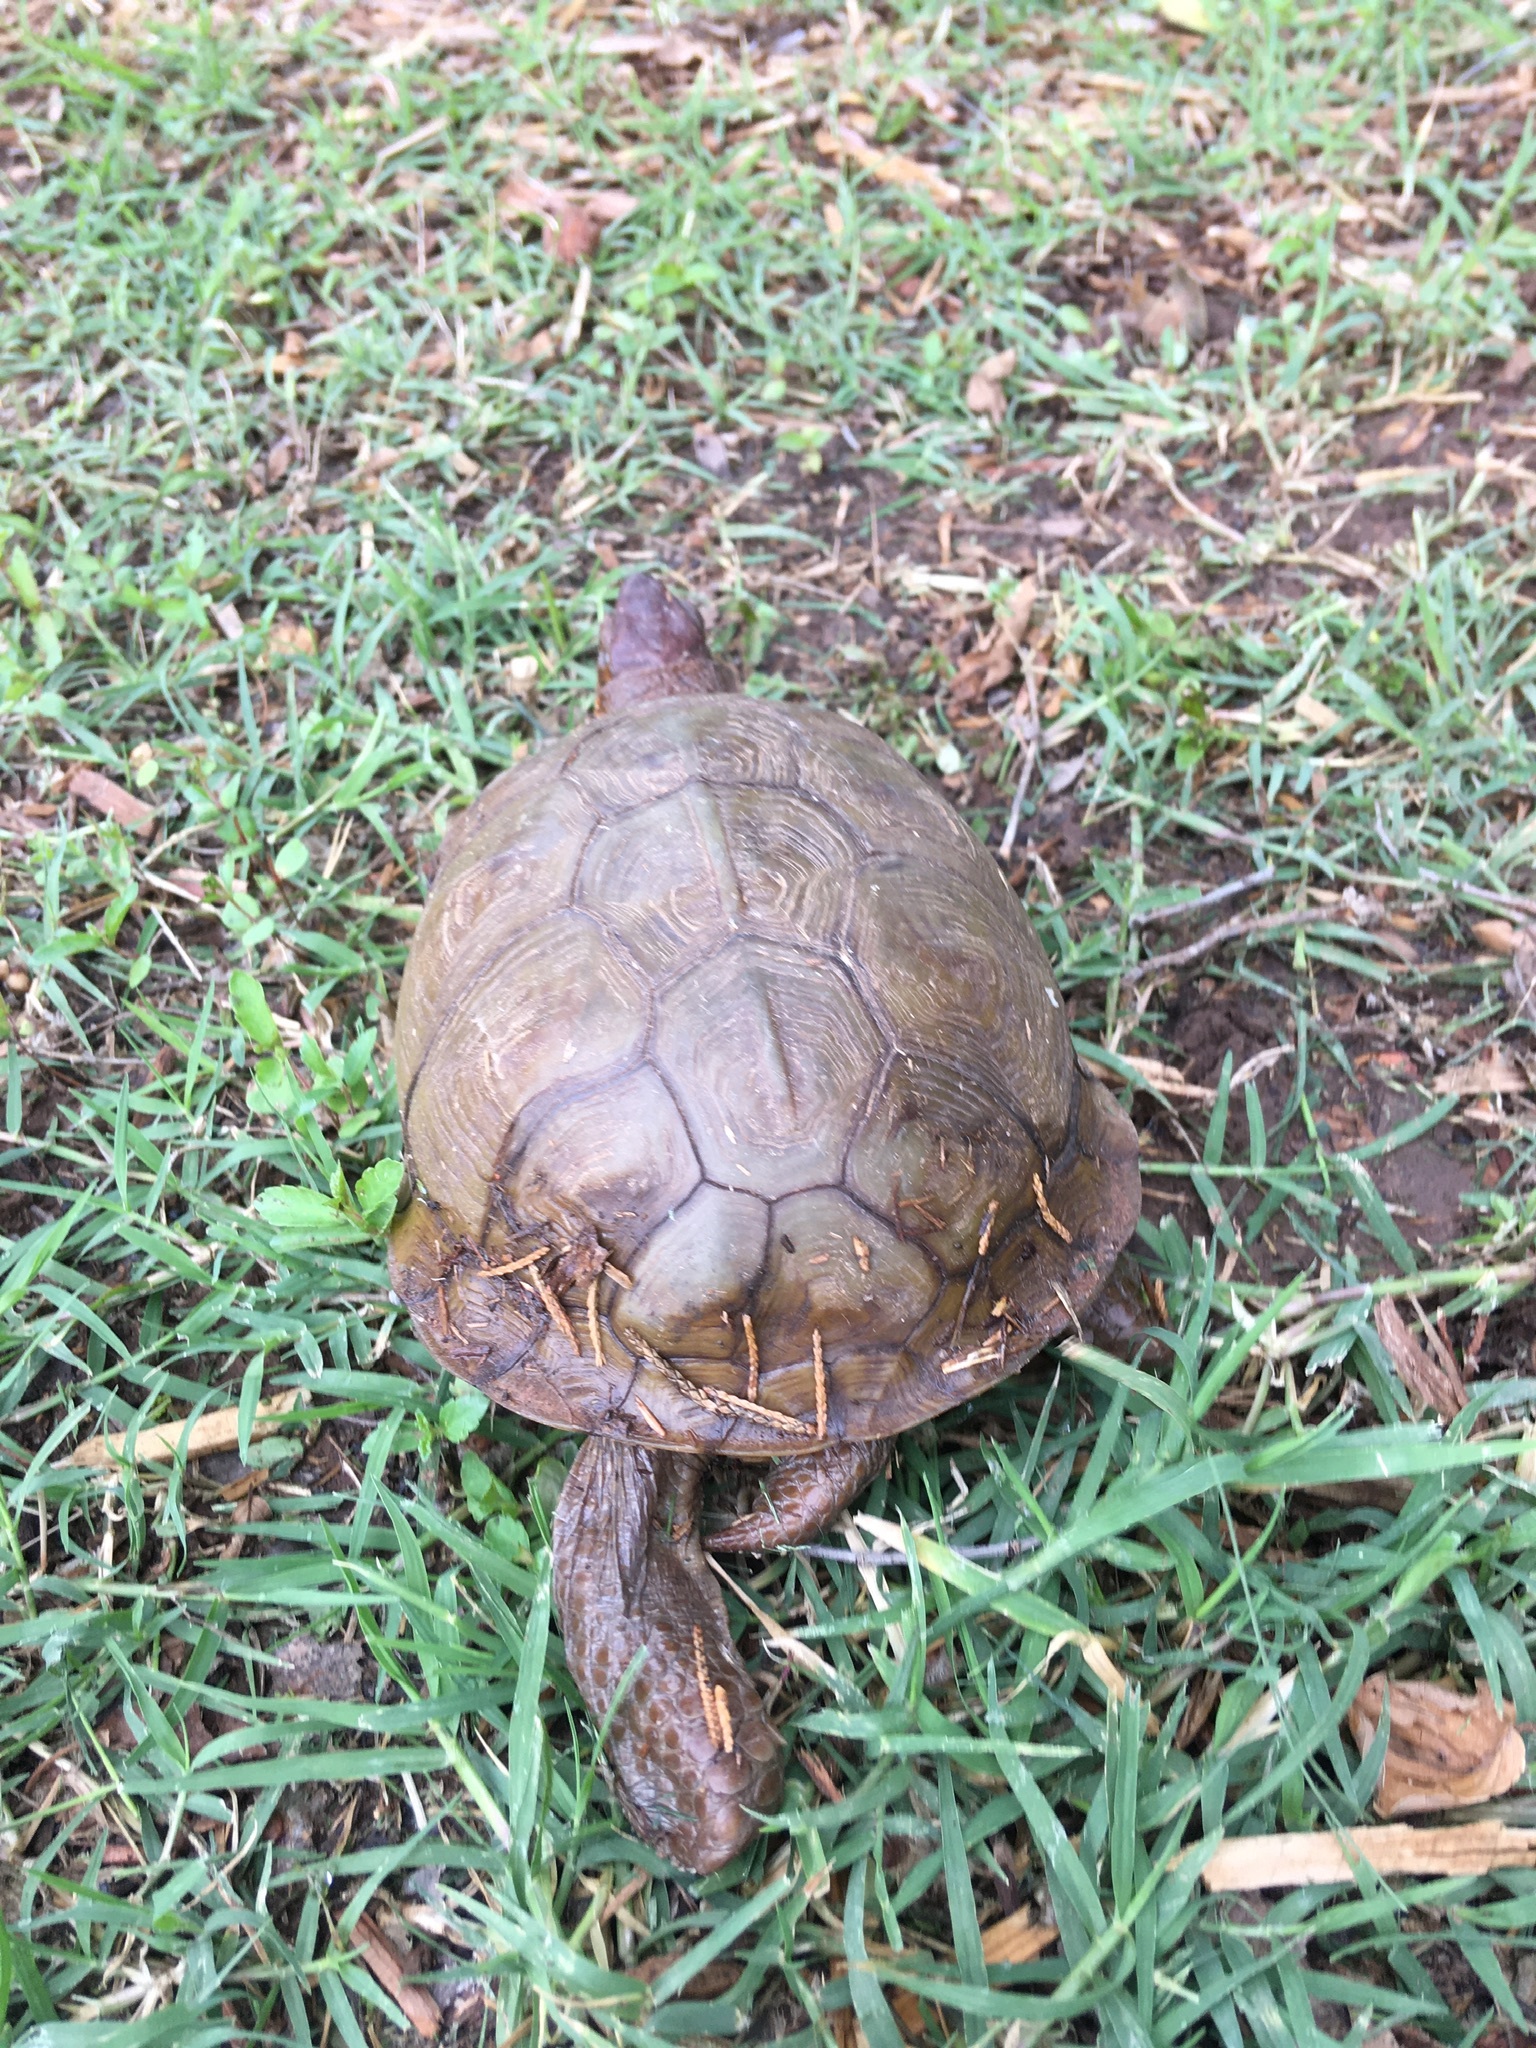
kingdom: Animalia
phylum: Chordata
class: Testudines
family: Emydidae
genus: Terrapene
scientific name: Terrapene carolina
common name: Common box turtle
